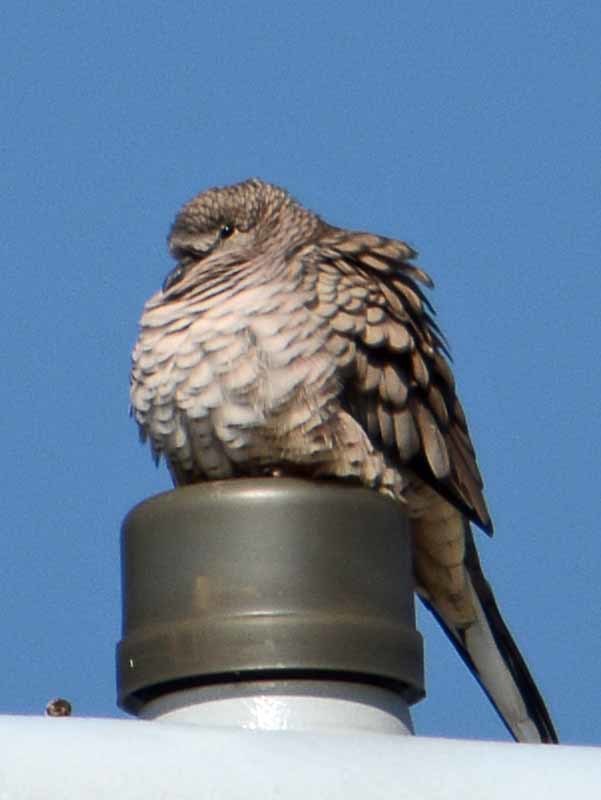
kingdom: Animalia
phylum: Chordata
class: Aves
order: Columbiformes
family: Columbidae
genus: Columbina
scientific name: Columbina inca
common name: Inca dove
